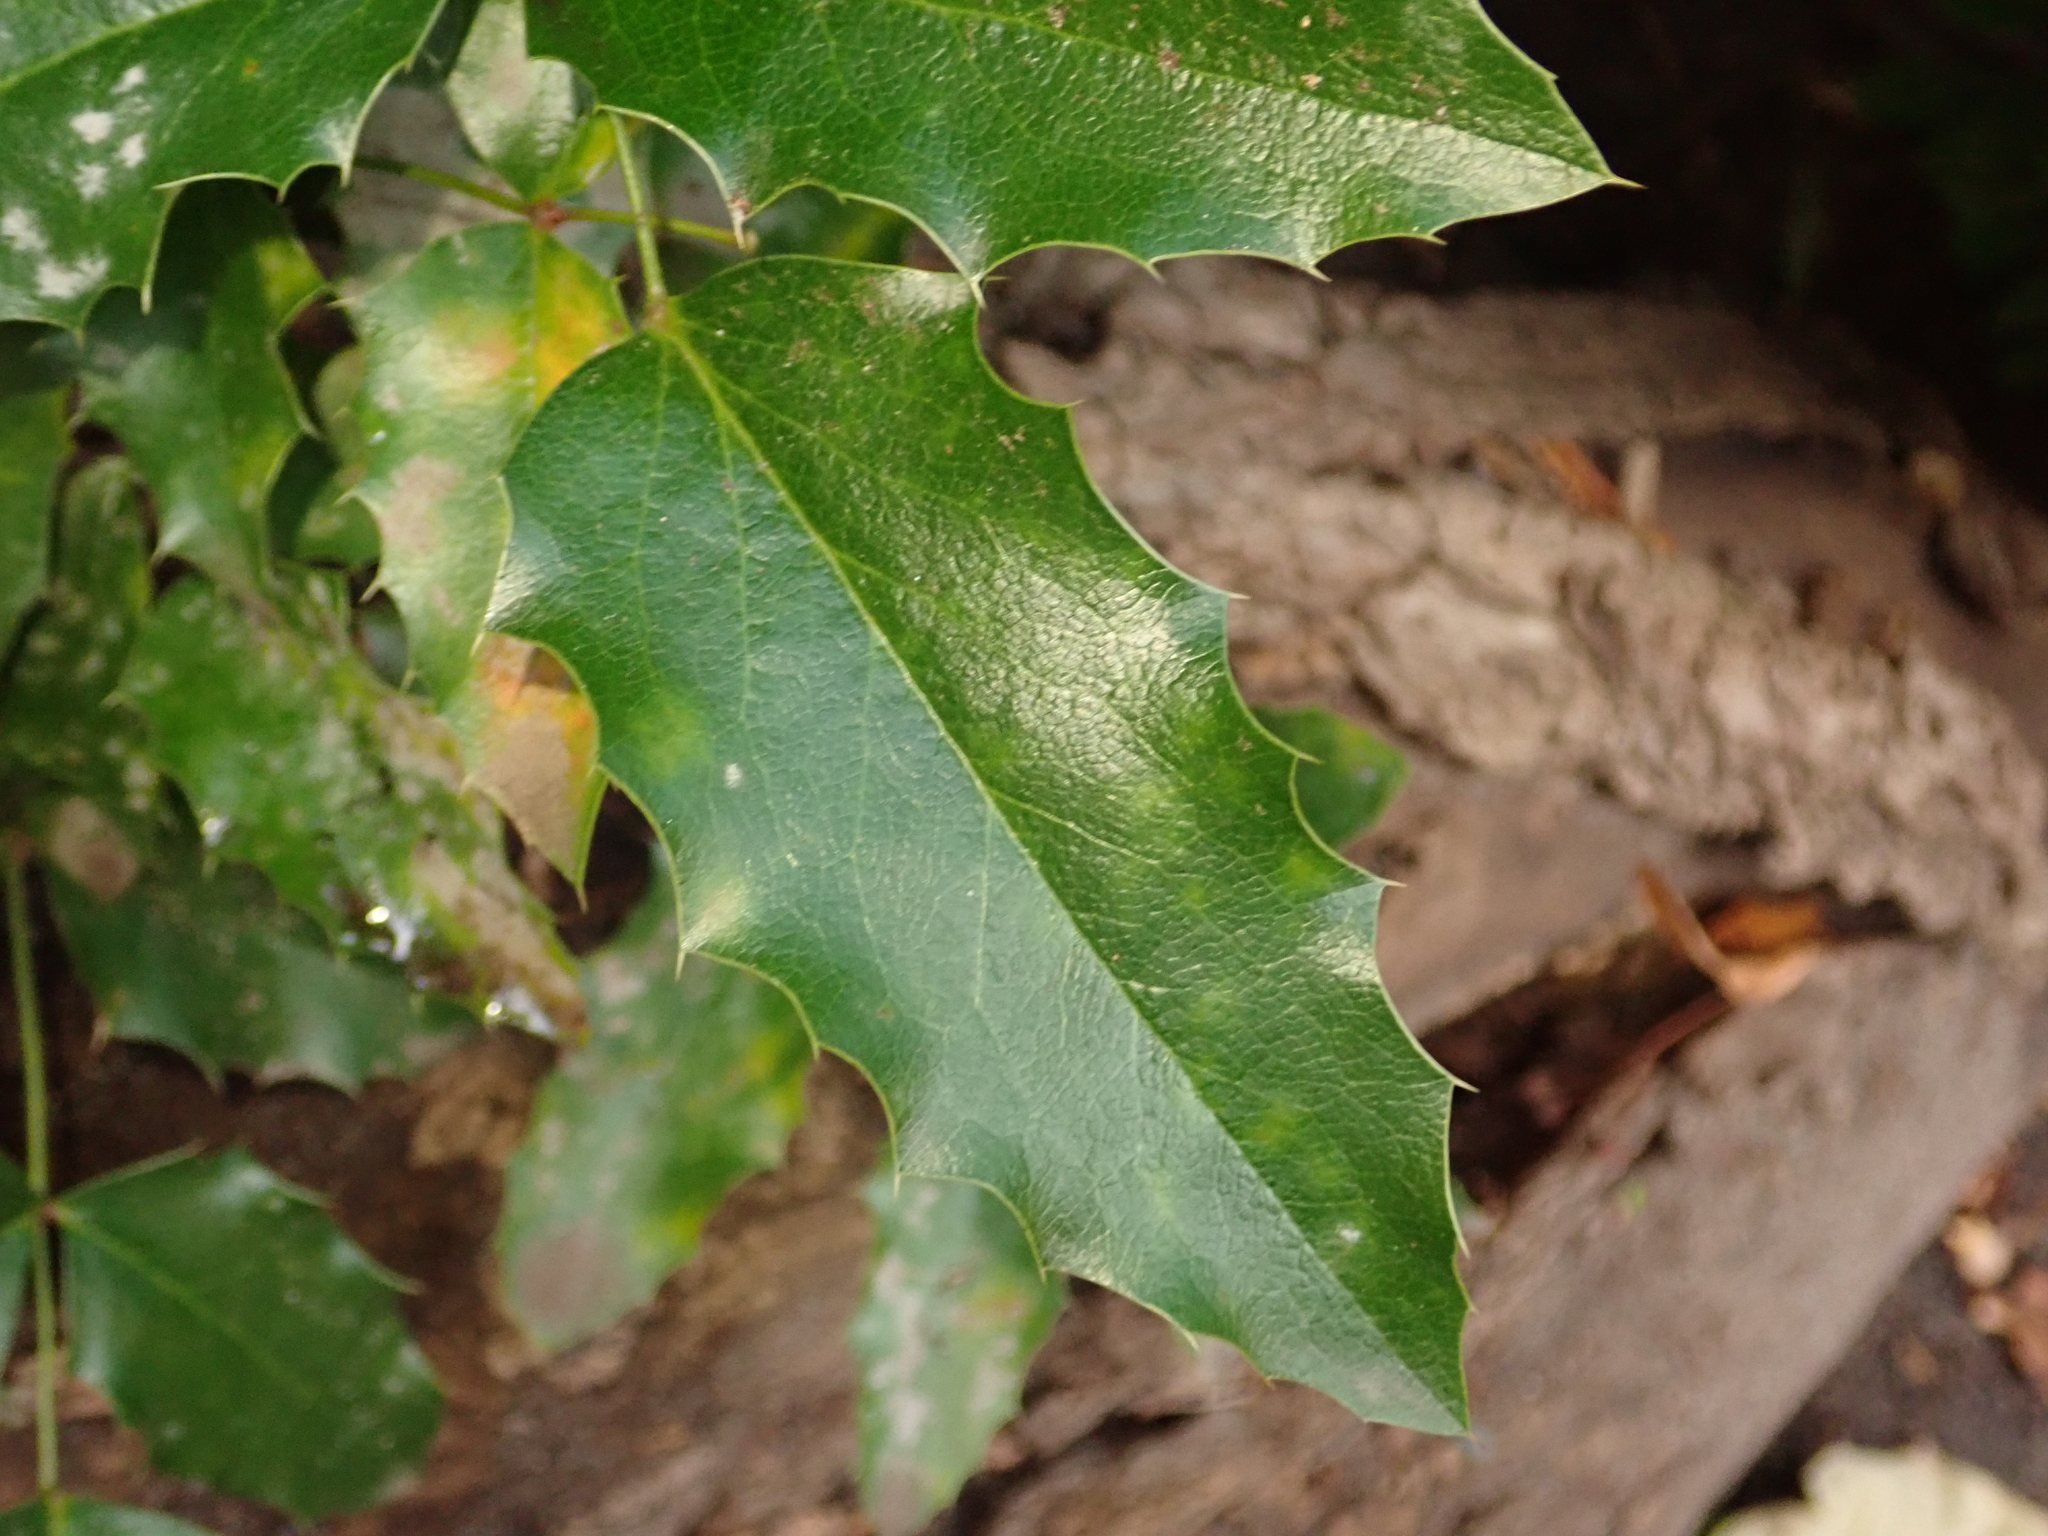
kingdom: Plantae
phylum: Tracheophyta
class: Magnoliopsida
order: Ranunculales
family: Berberidaceae
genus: Mahonia
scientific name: Mahonia aquifolium
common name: Oregon-grape
